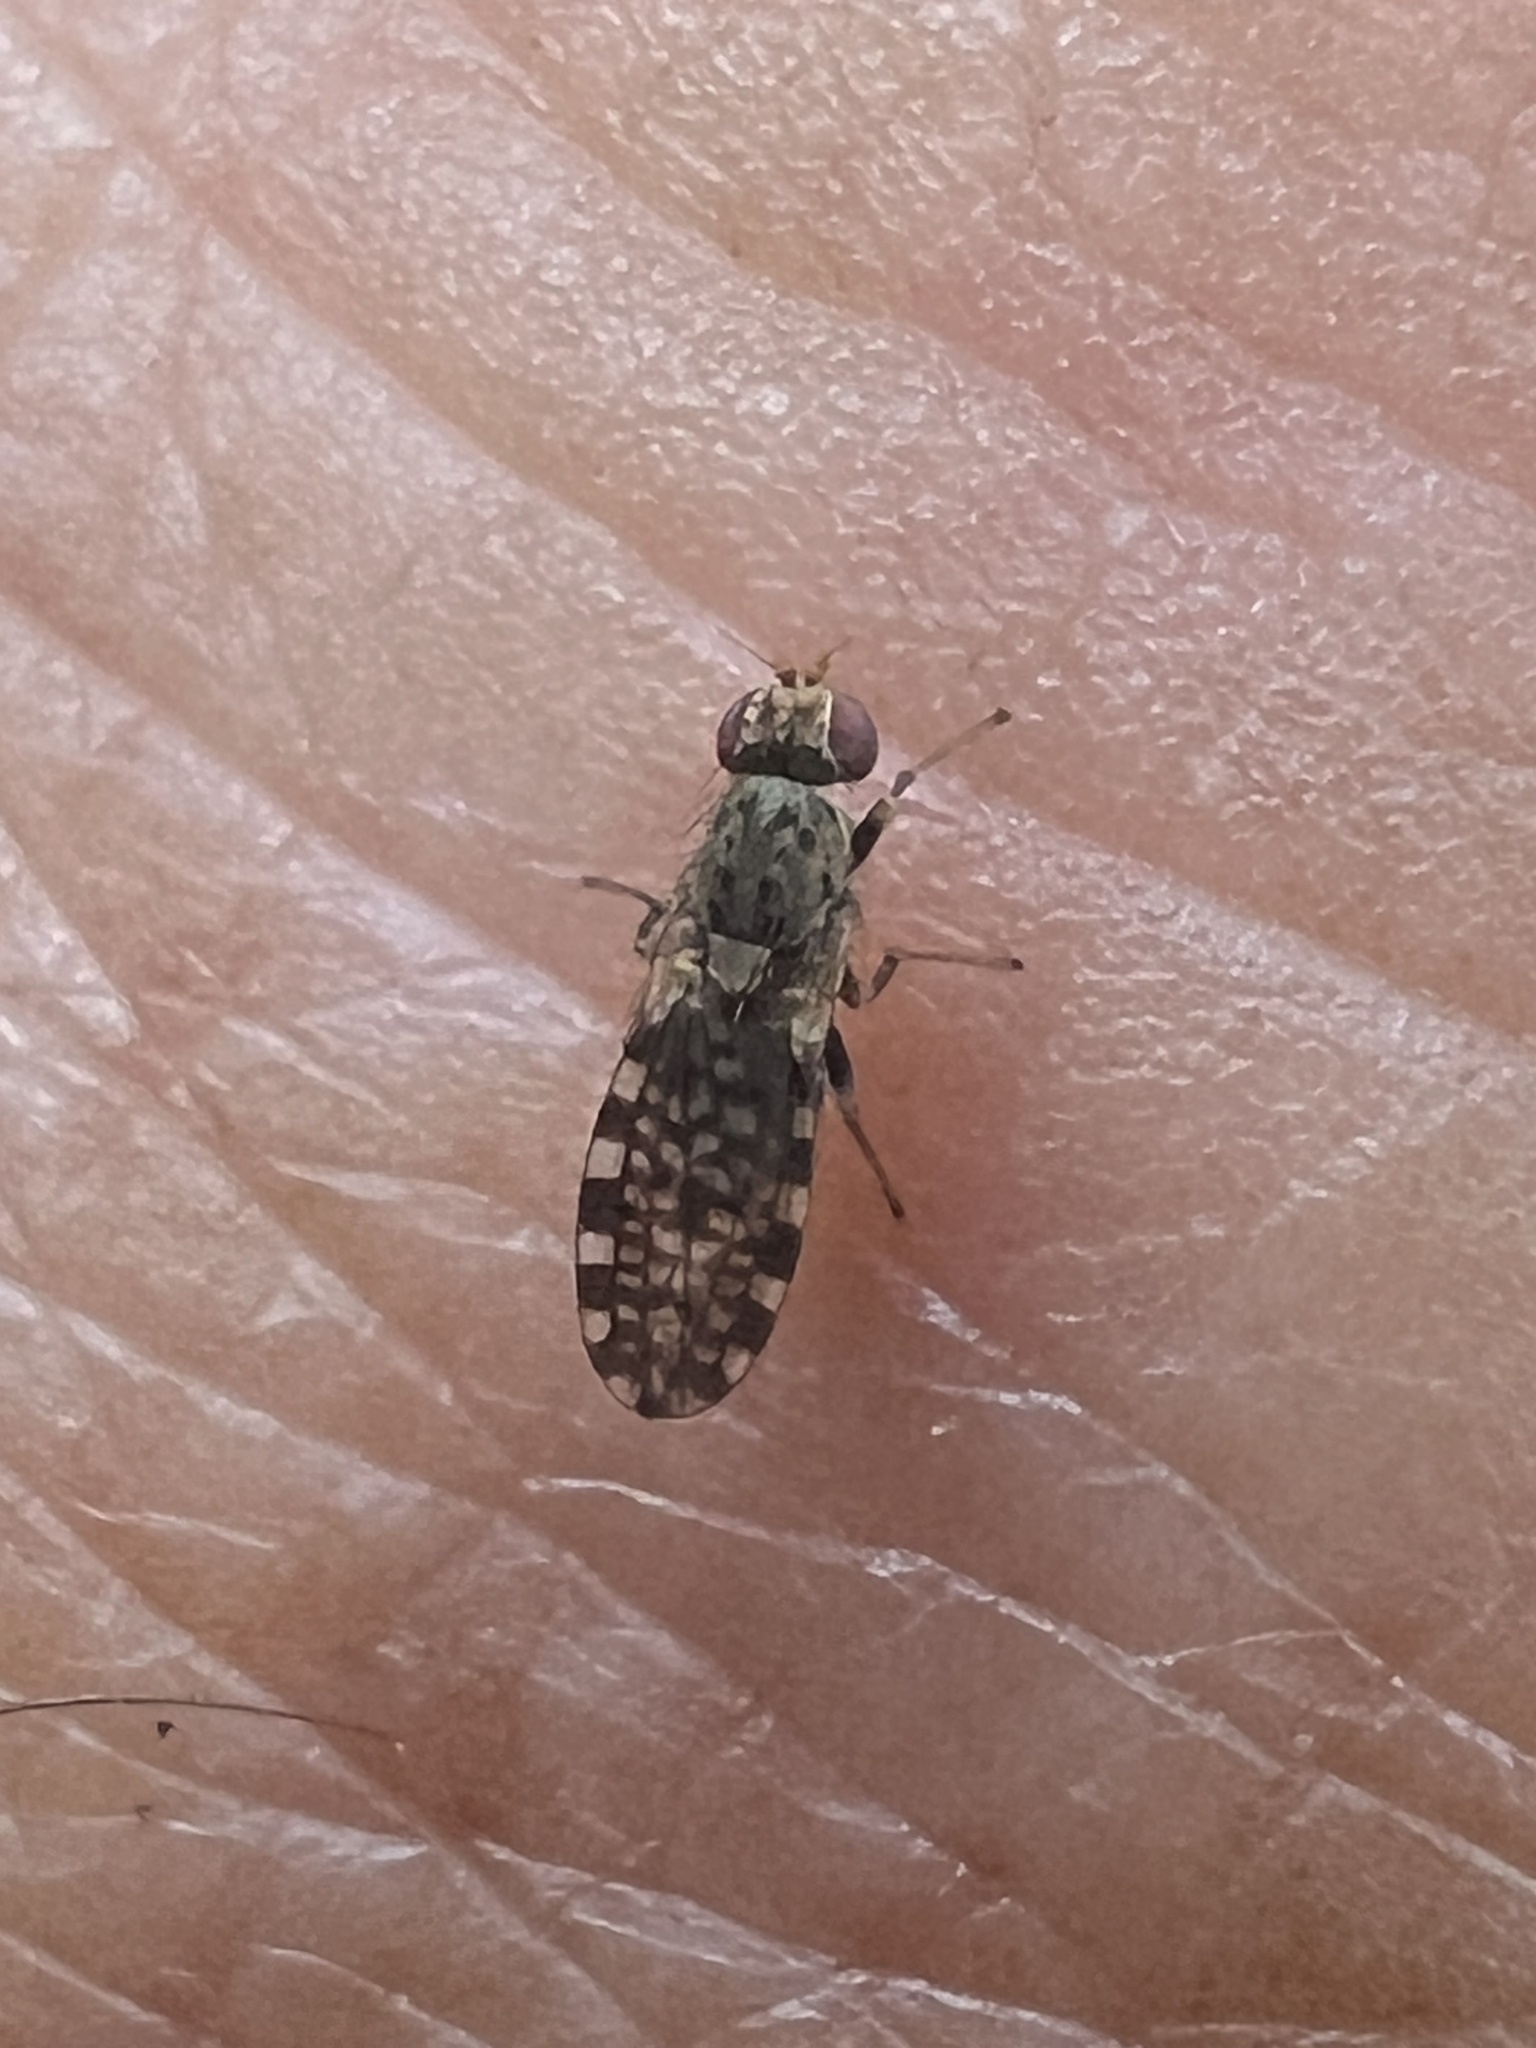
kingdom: Animalia
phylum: Arthropoda
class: Insecta
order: Diptera
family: Heleomyzidae
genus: Xeneura
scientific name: Xeneura picata
